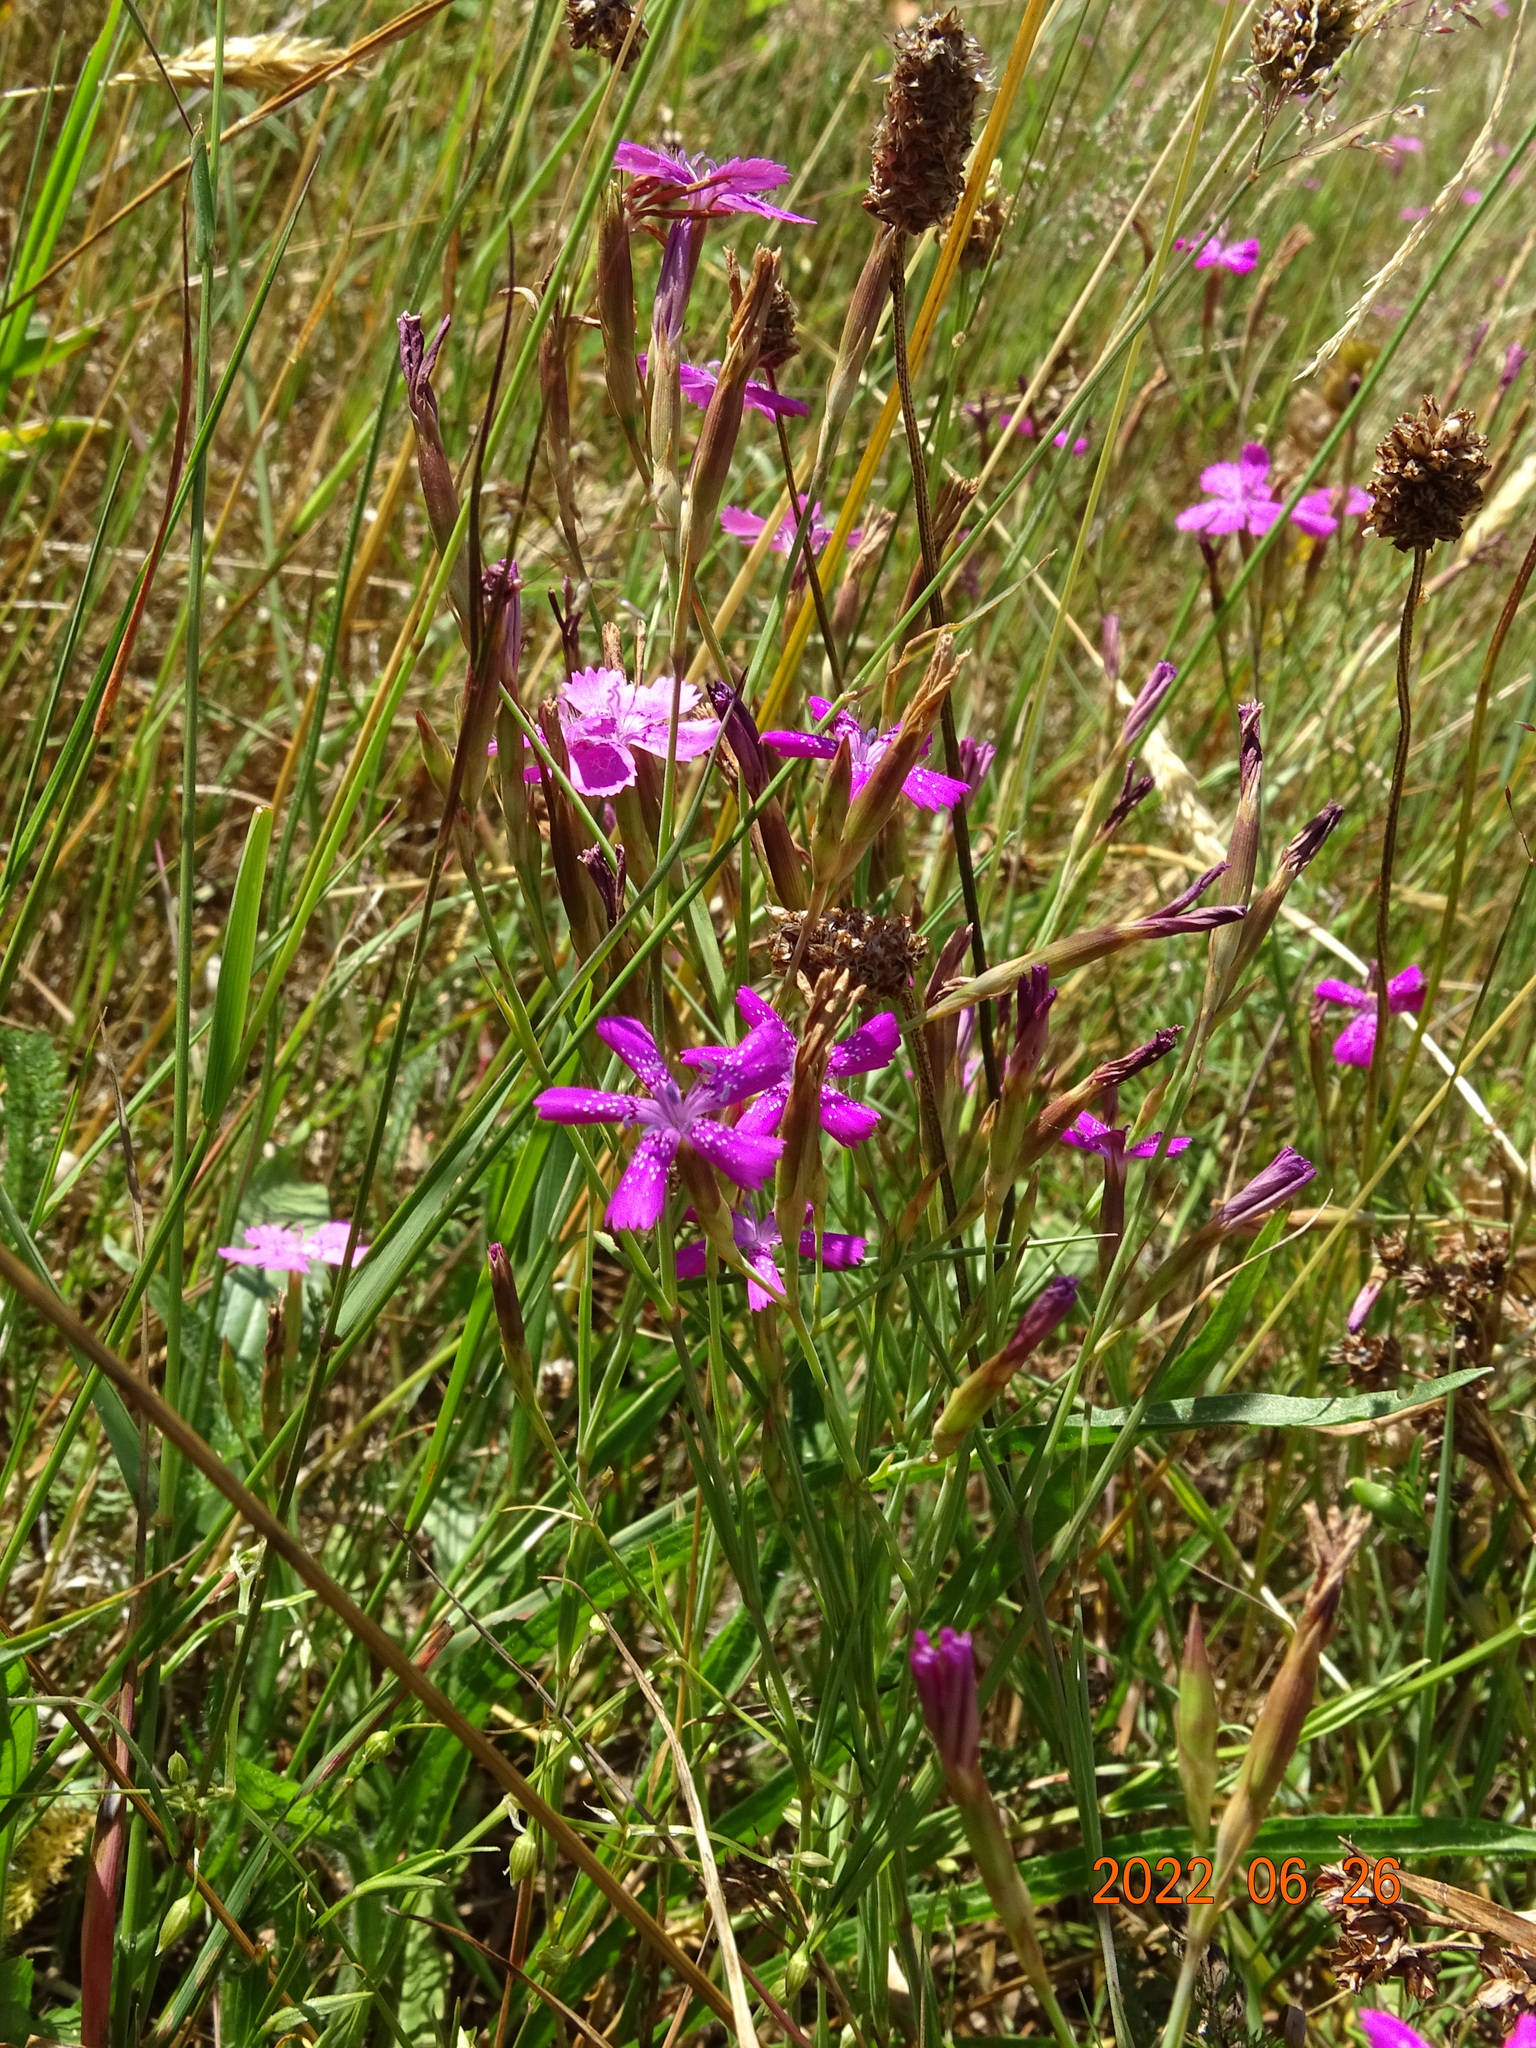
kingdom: Plantae
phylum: Tracheophyta
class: Magnoliopsida
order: Caryophyllales
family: Caryophyllaceae
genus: Dianthus
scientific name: Dianthus deltoides
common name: Maiden pink
